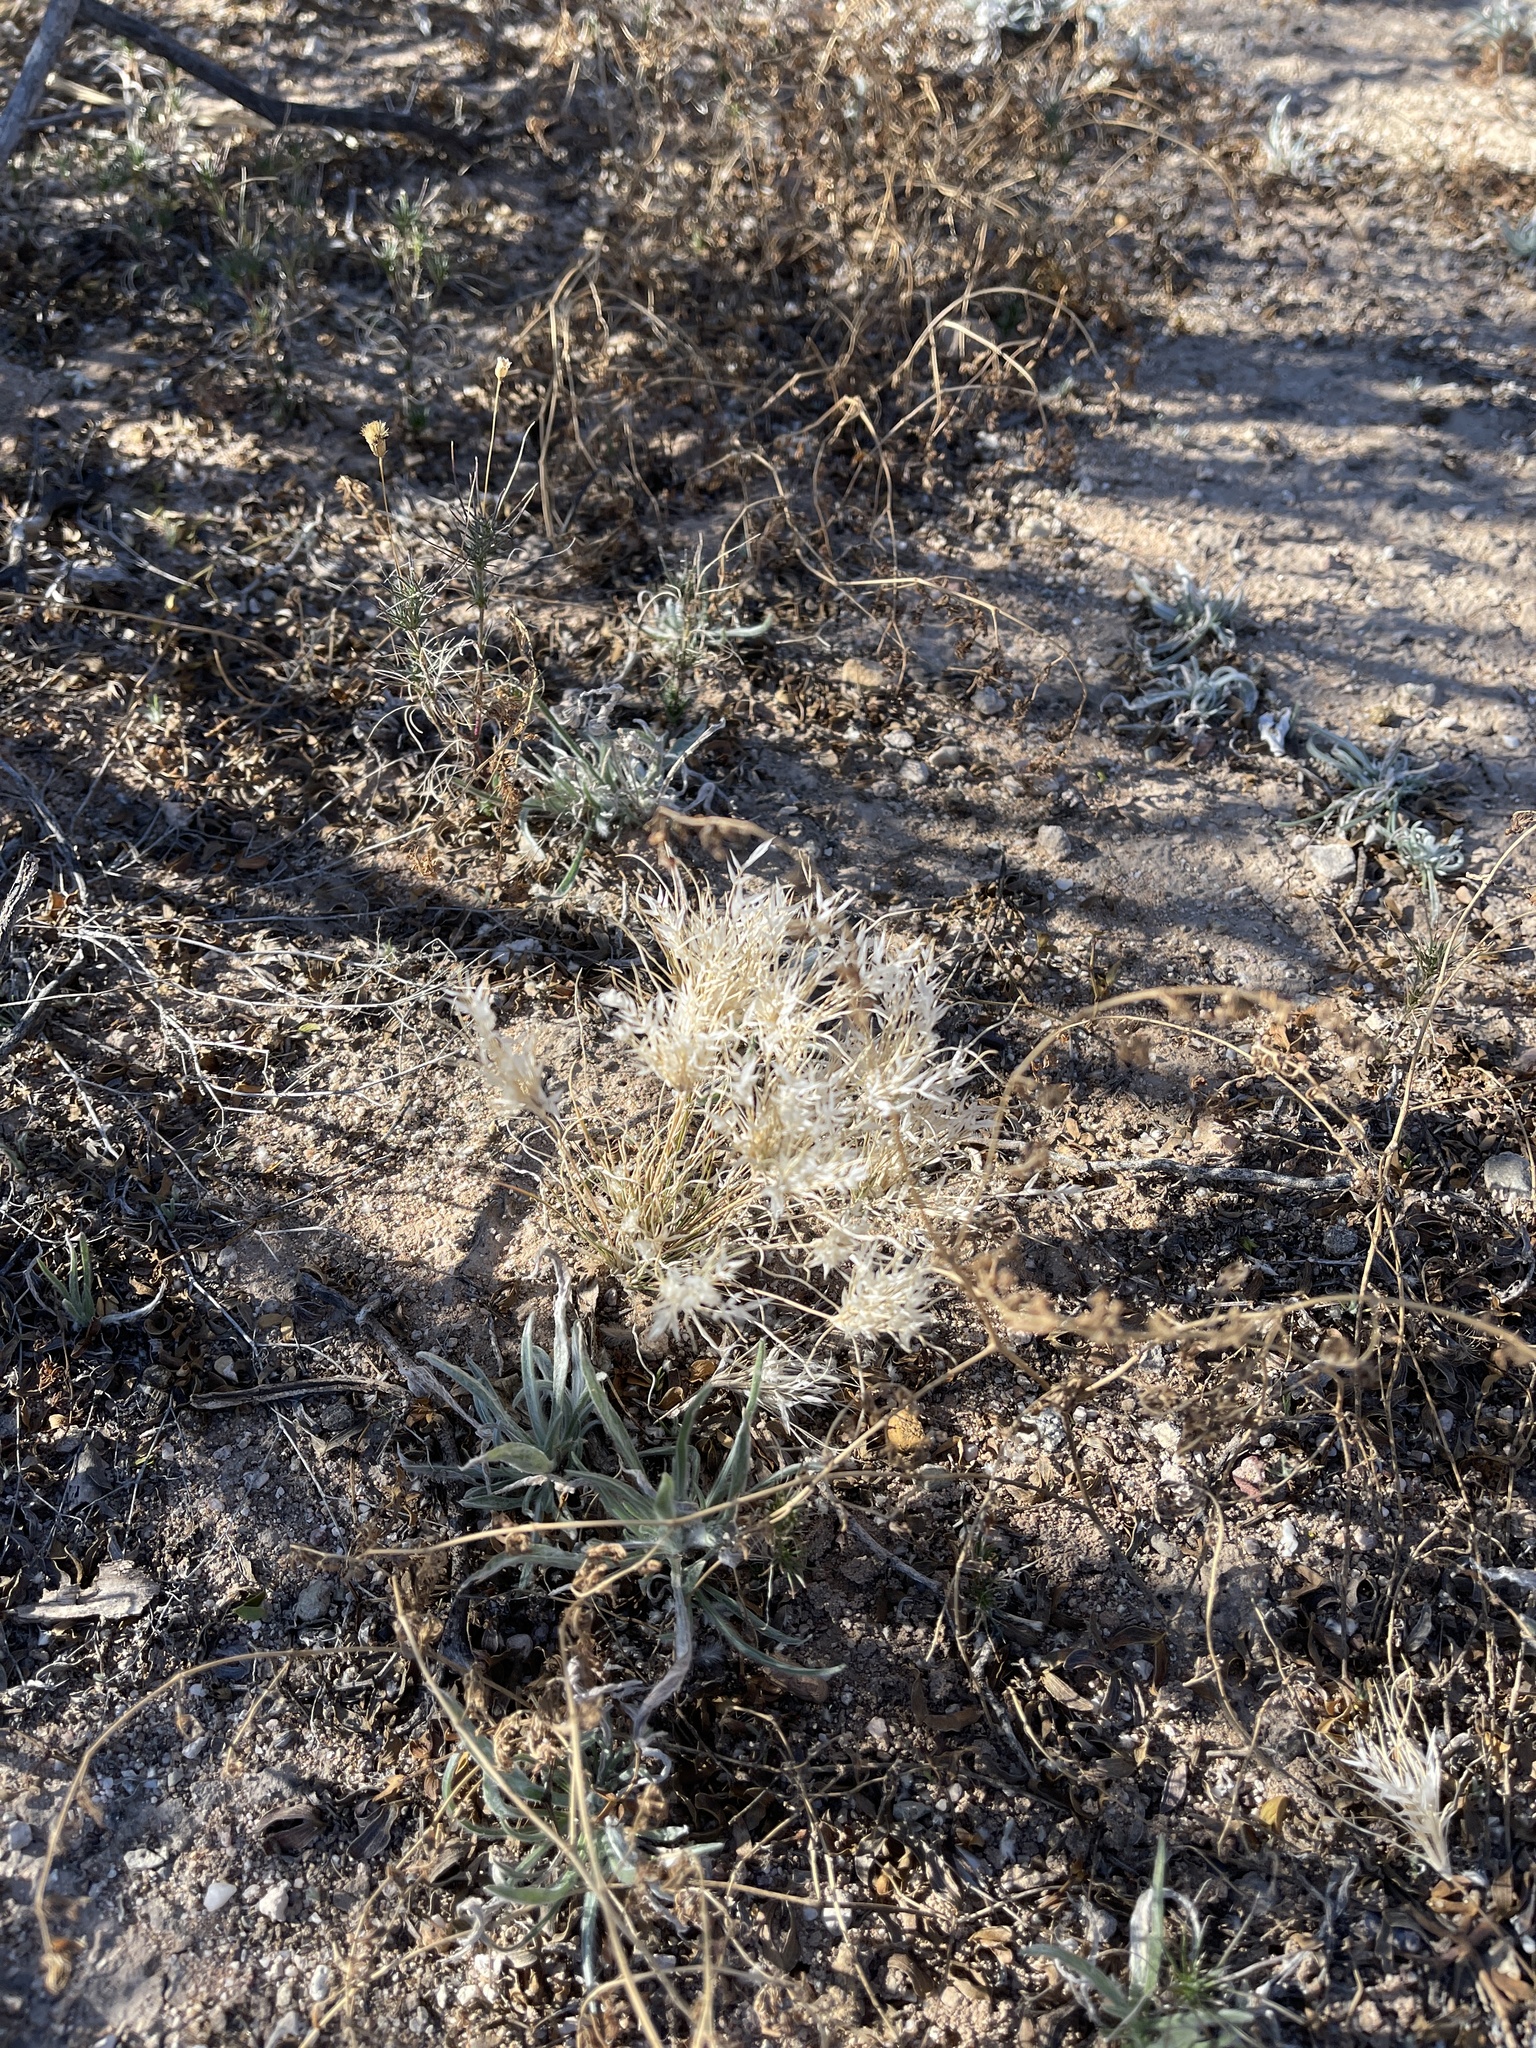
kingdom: Plantae
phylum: Tracheophyta
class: Liliopsida
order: Poales
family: Poaceae
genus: Dasyochloa
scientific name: Dasyochloa pulchella
